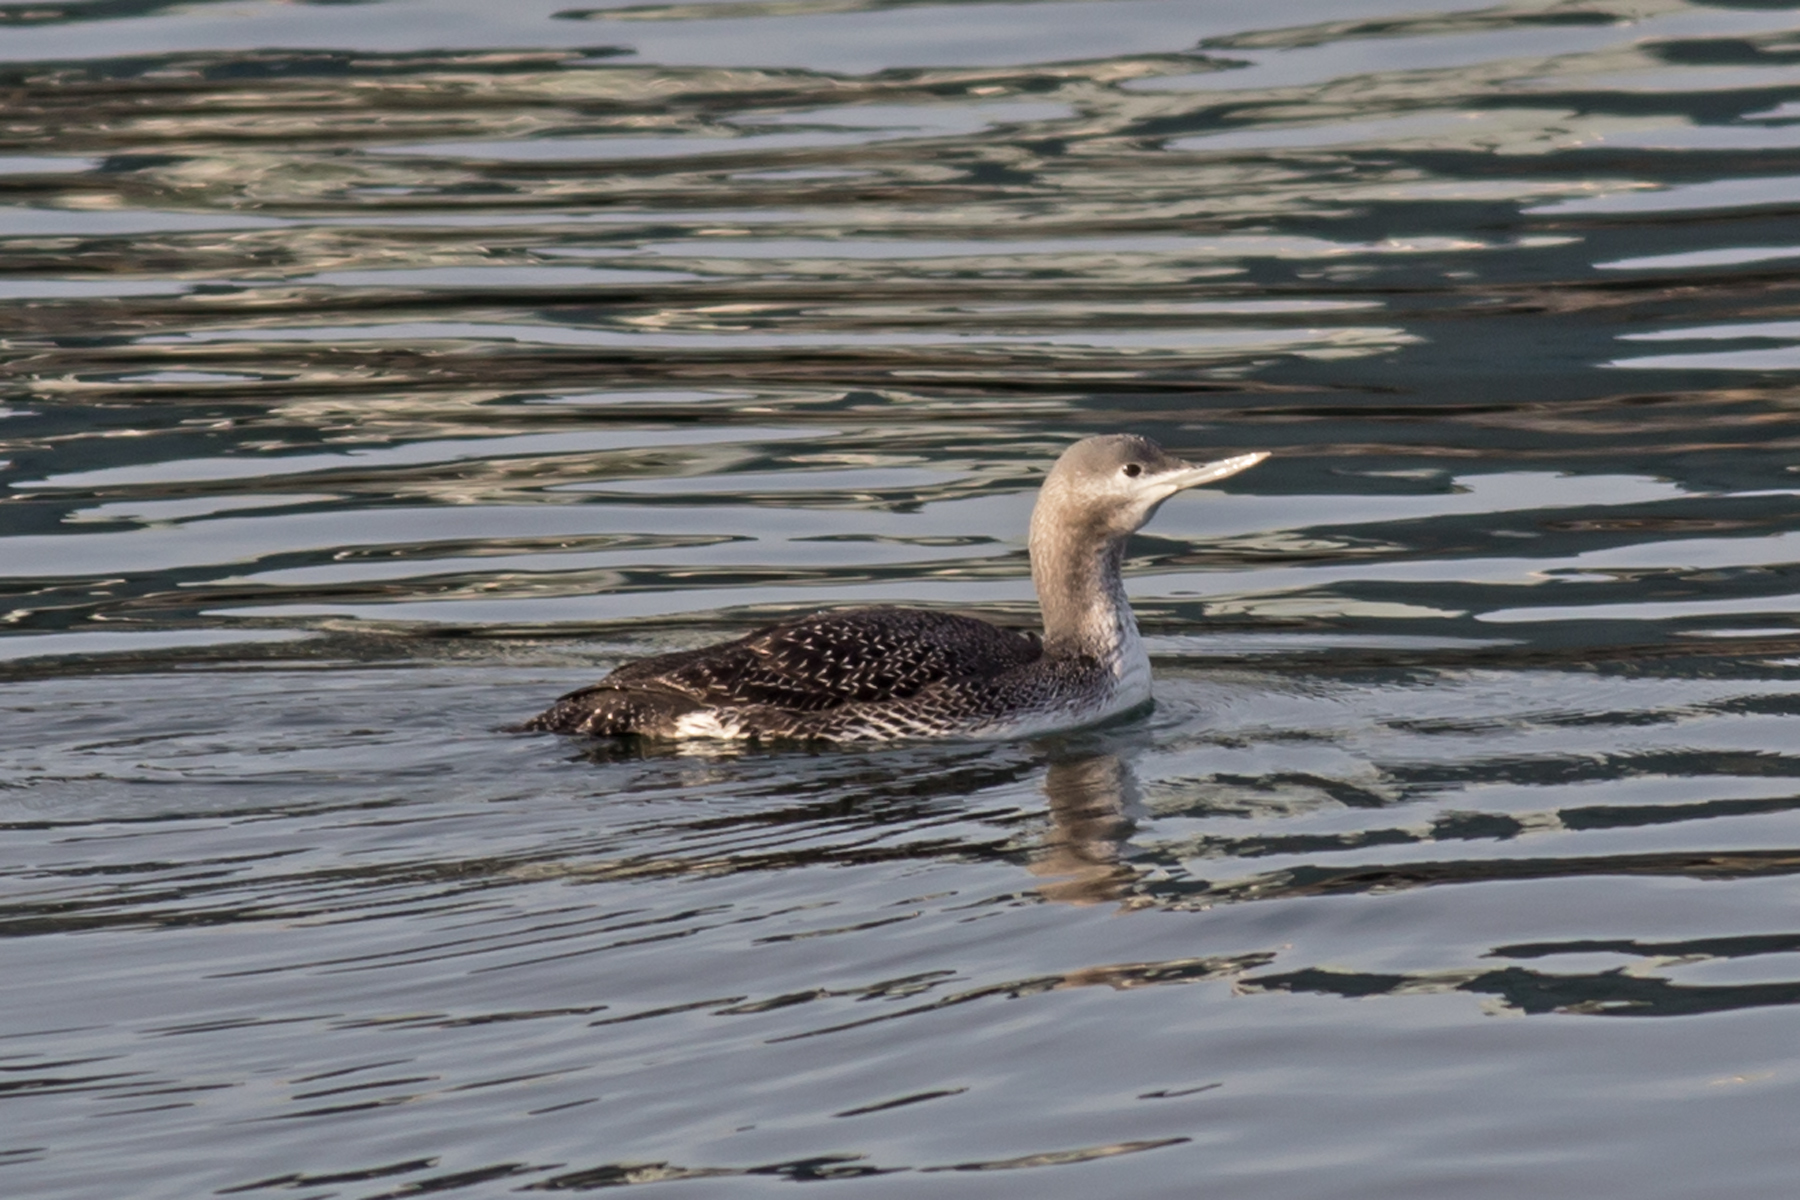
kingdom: Animalia
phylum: Chordata
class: Aves
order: Gaviiformes
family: Gaviidae
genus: Gavia
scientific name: Gavia stellata
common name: Red-throated loon
